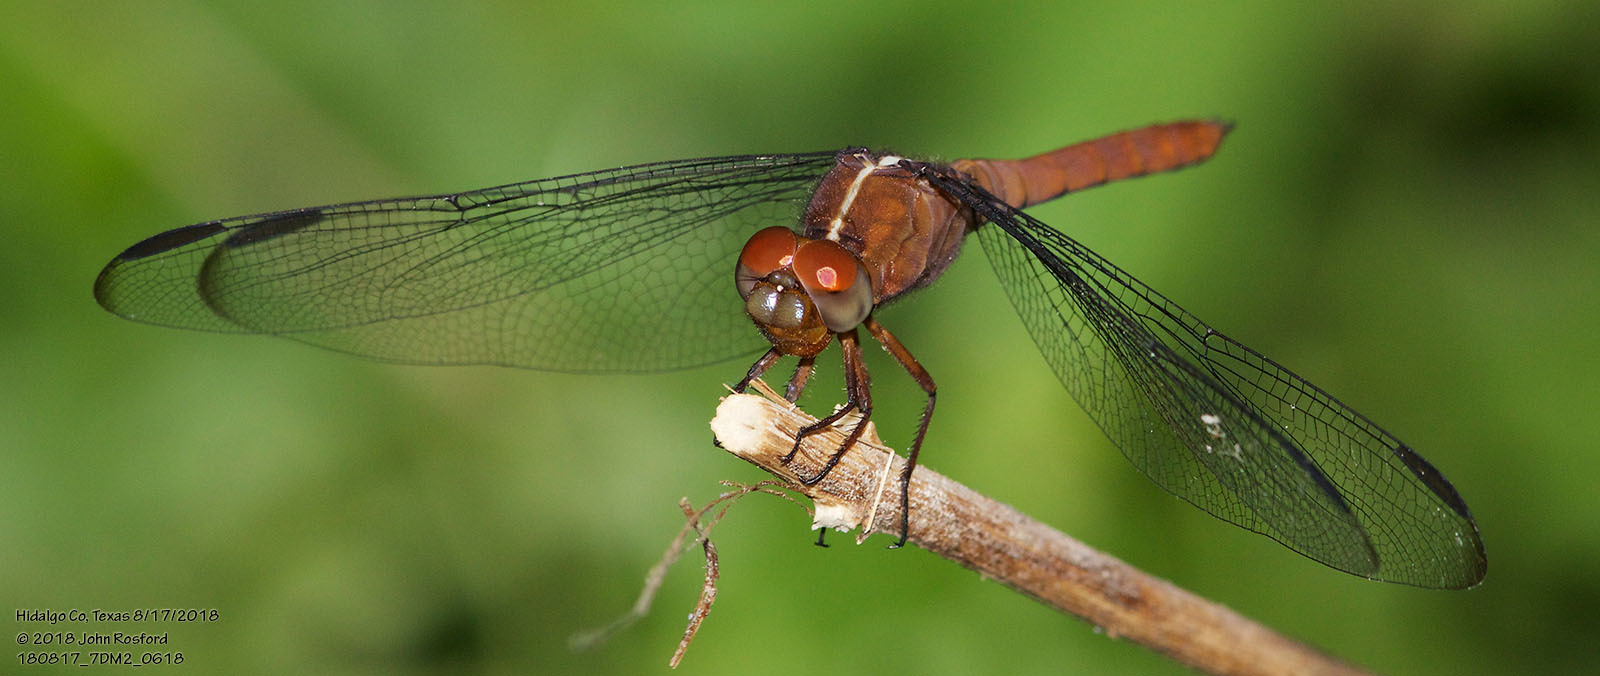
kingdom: Animalia
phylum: Arthropoda
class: Insecta
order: Odonata
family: Libellulidae
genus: Orthemis
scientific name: Orthemis discolor
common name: Carmine skimmer
